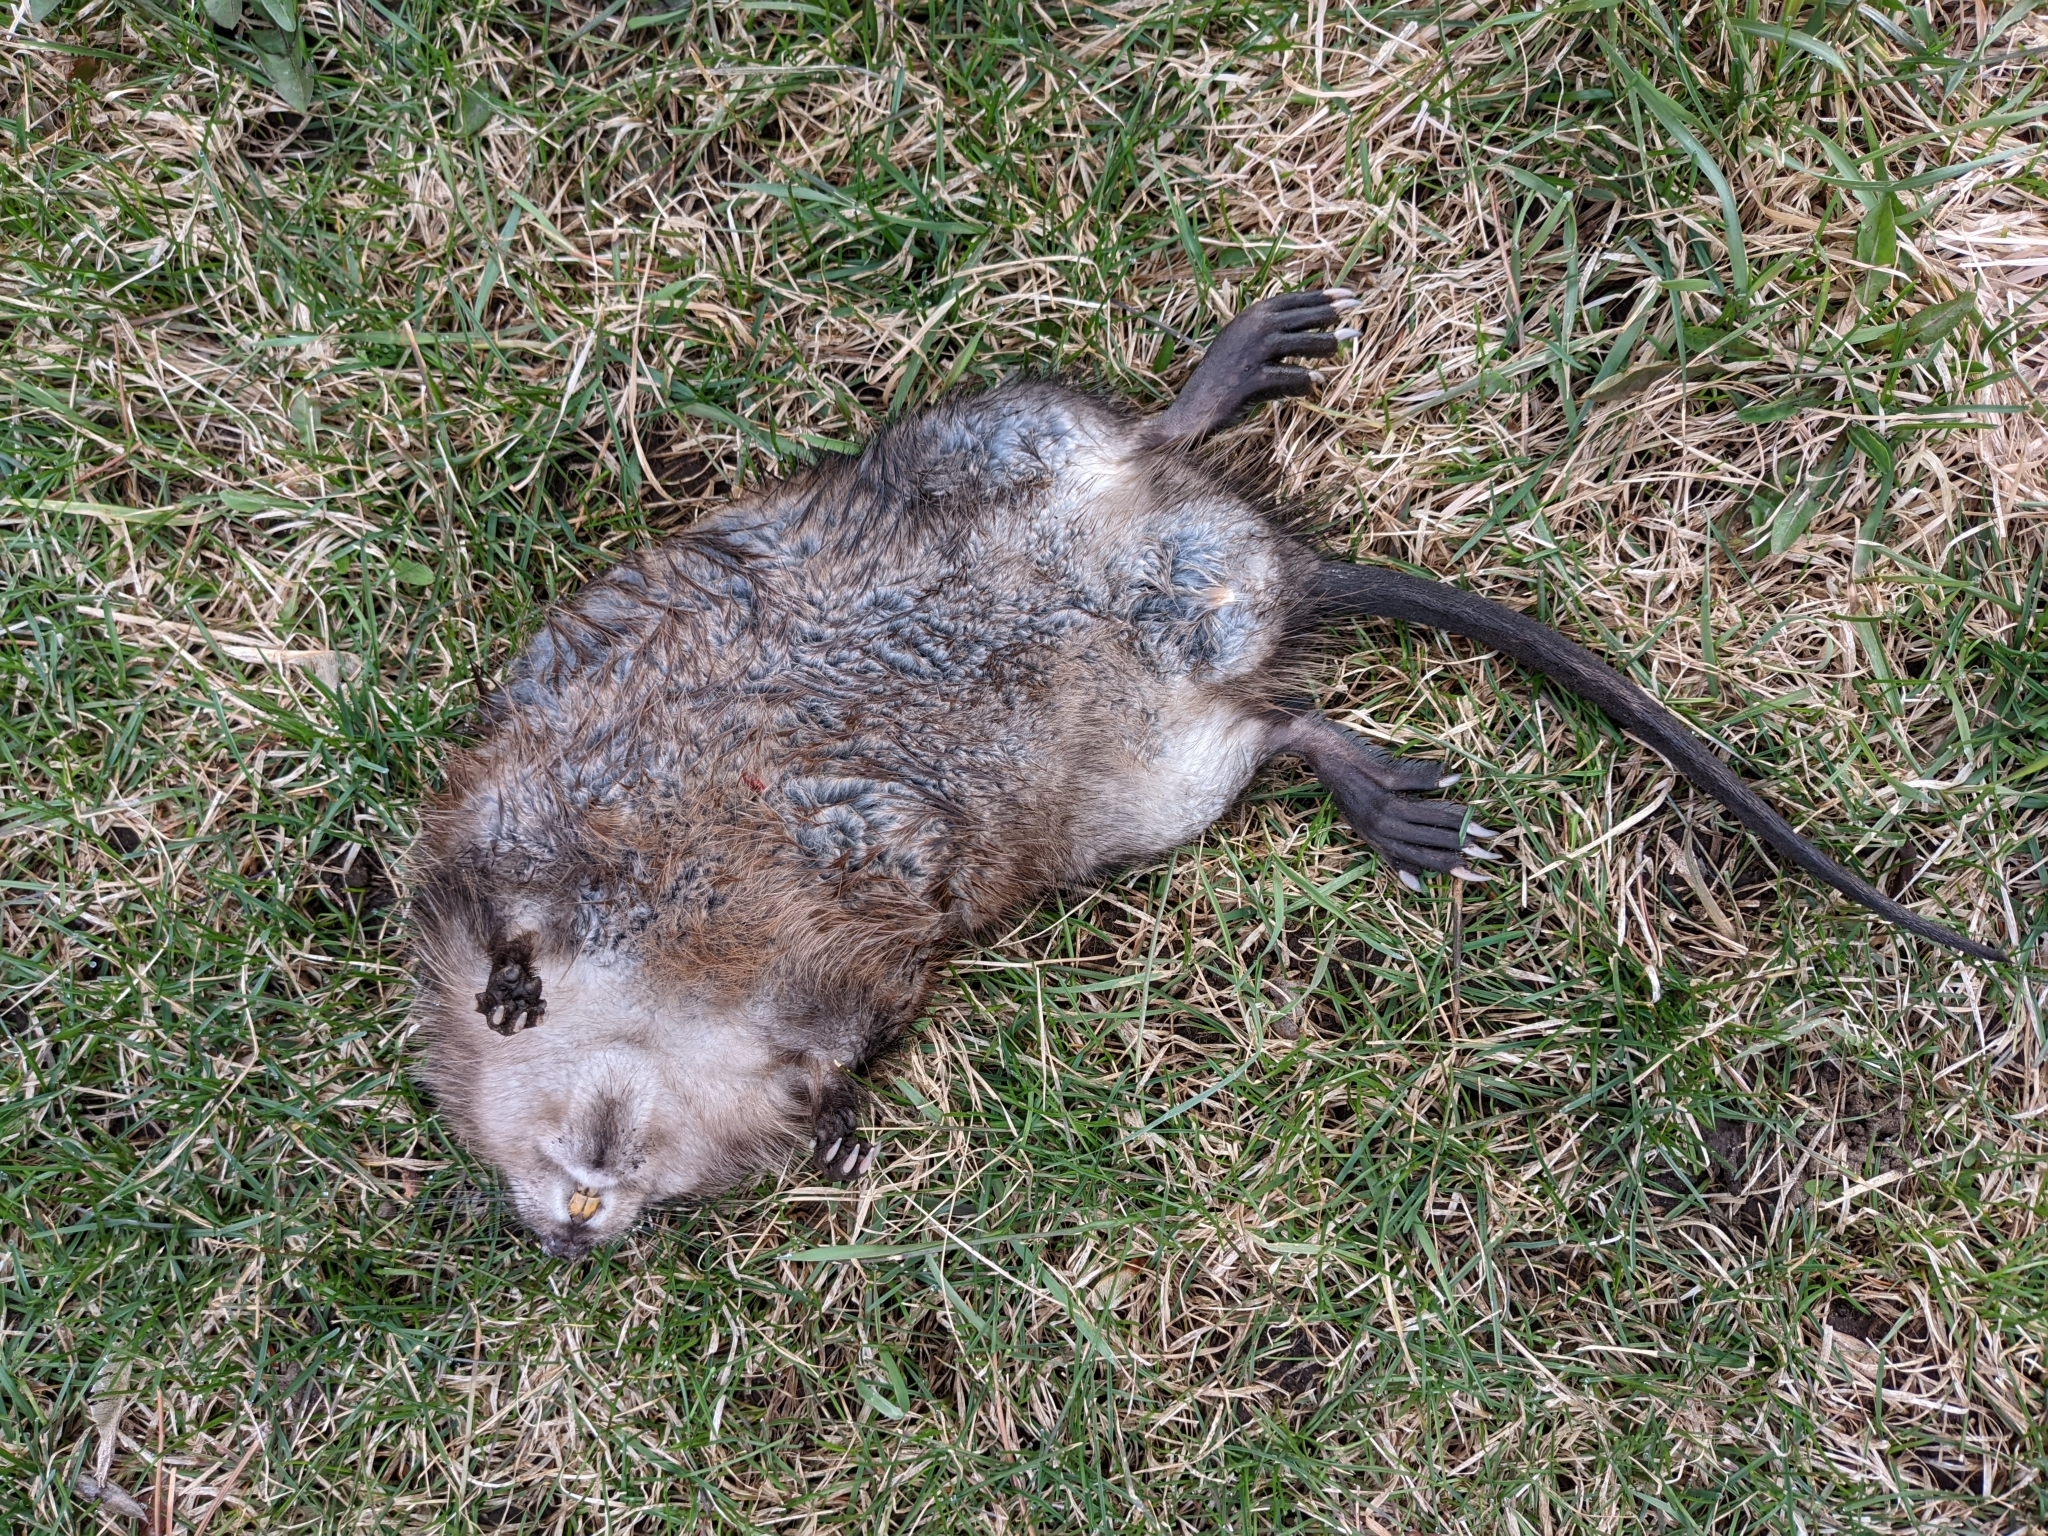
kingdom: Animalia
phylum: Chordata
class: Mammalia
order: Rodentia
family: Cricetidae
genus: Ondatra
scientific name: Ondatra zibethicus
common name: Muskrat
